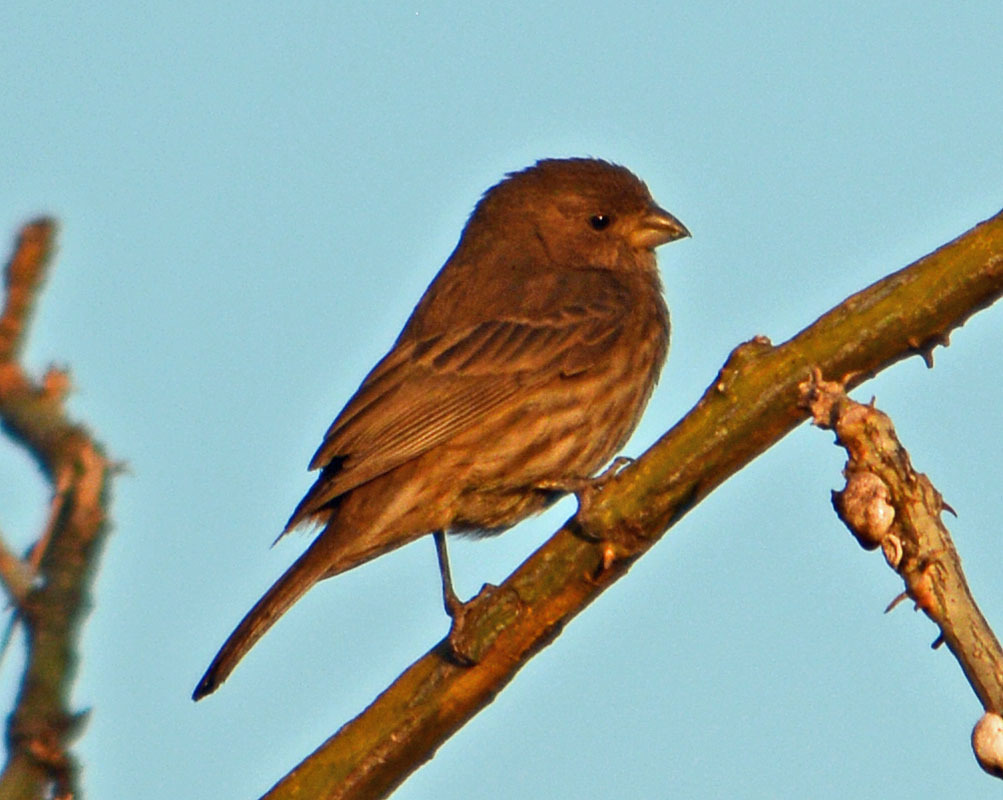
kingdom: Animalia
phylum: Chordata
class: Aves
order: Passeriformes
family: Fringillidae
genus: Haemorhous
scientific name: Haemorhous mexicanus
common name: House finch
